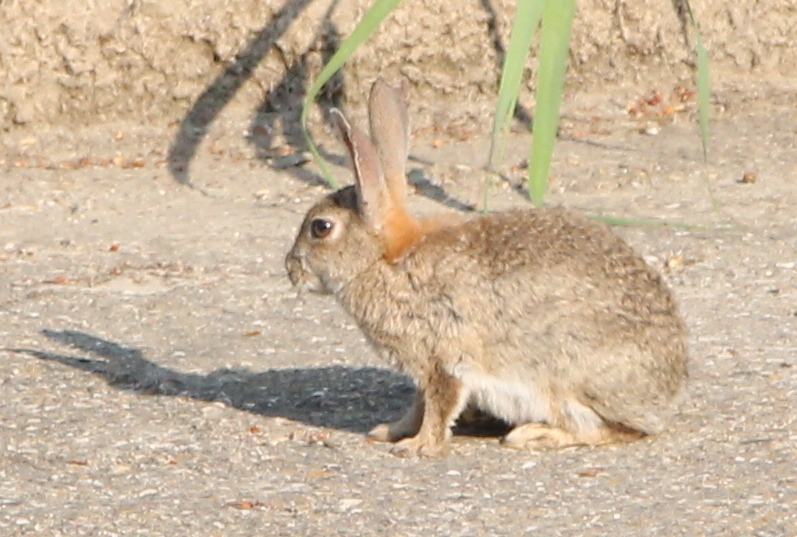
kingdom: Animalia
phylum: Chordata
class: Mammalia
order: Lagomorpha
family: Leporidae
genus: Oryctolagus
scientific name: Oryctolagus cuniculus
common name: European rabbit
